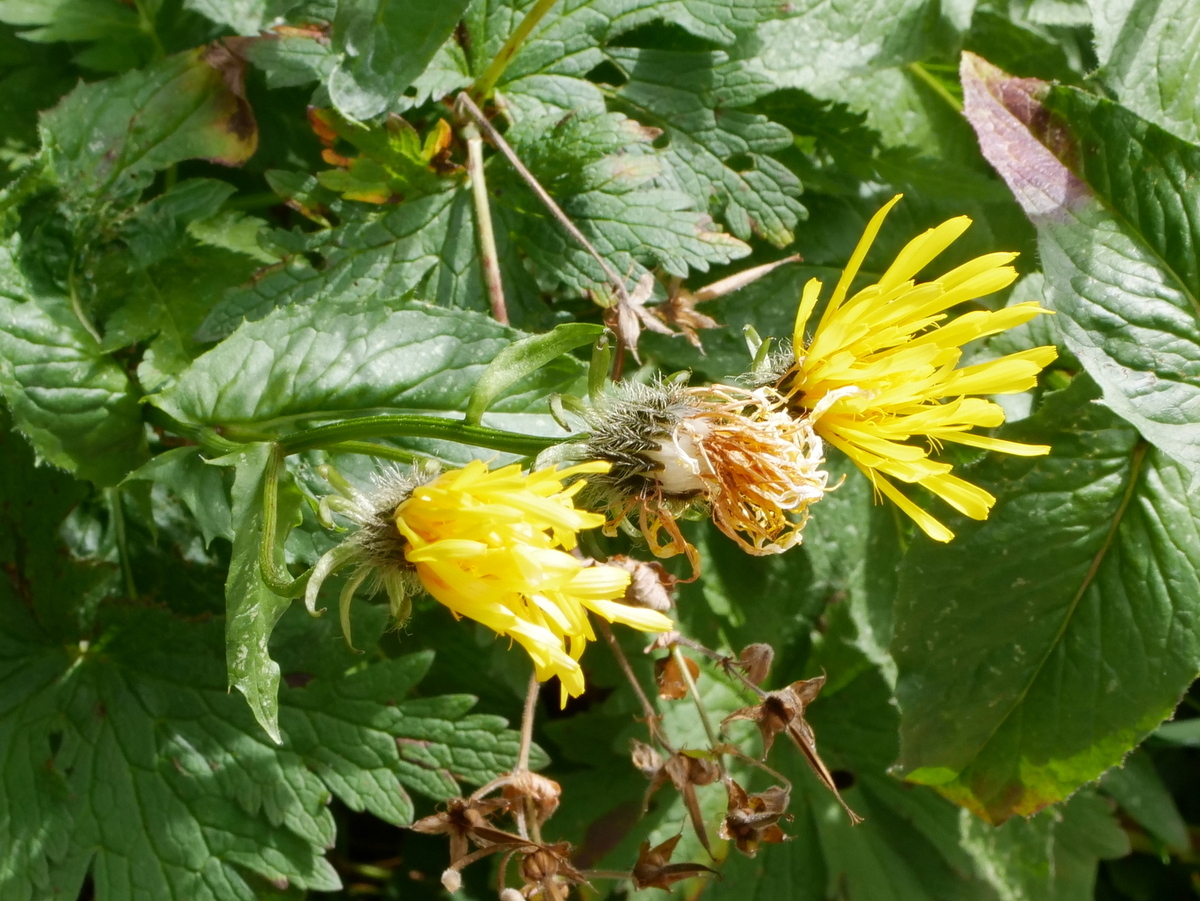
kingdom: Plantae
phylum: Tracheophyta
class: Magnoliopsida
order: Asterales
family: Asteraceae
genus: Crepis
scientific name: Crepis pyrenaica
